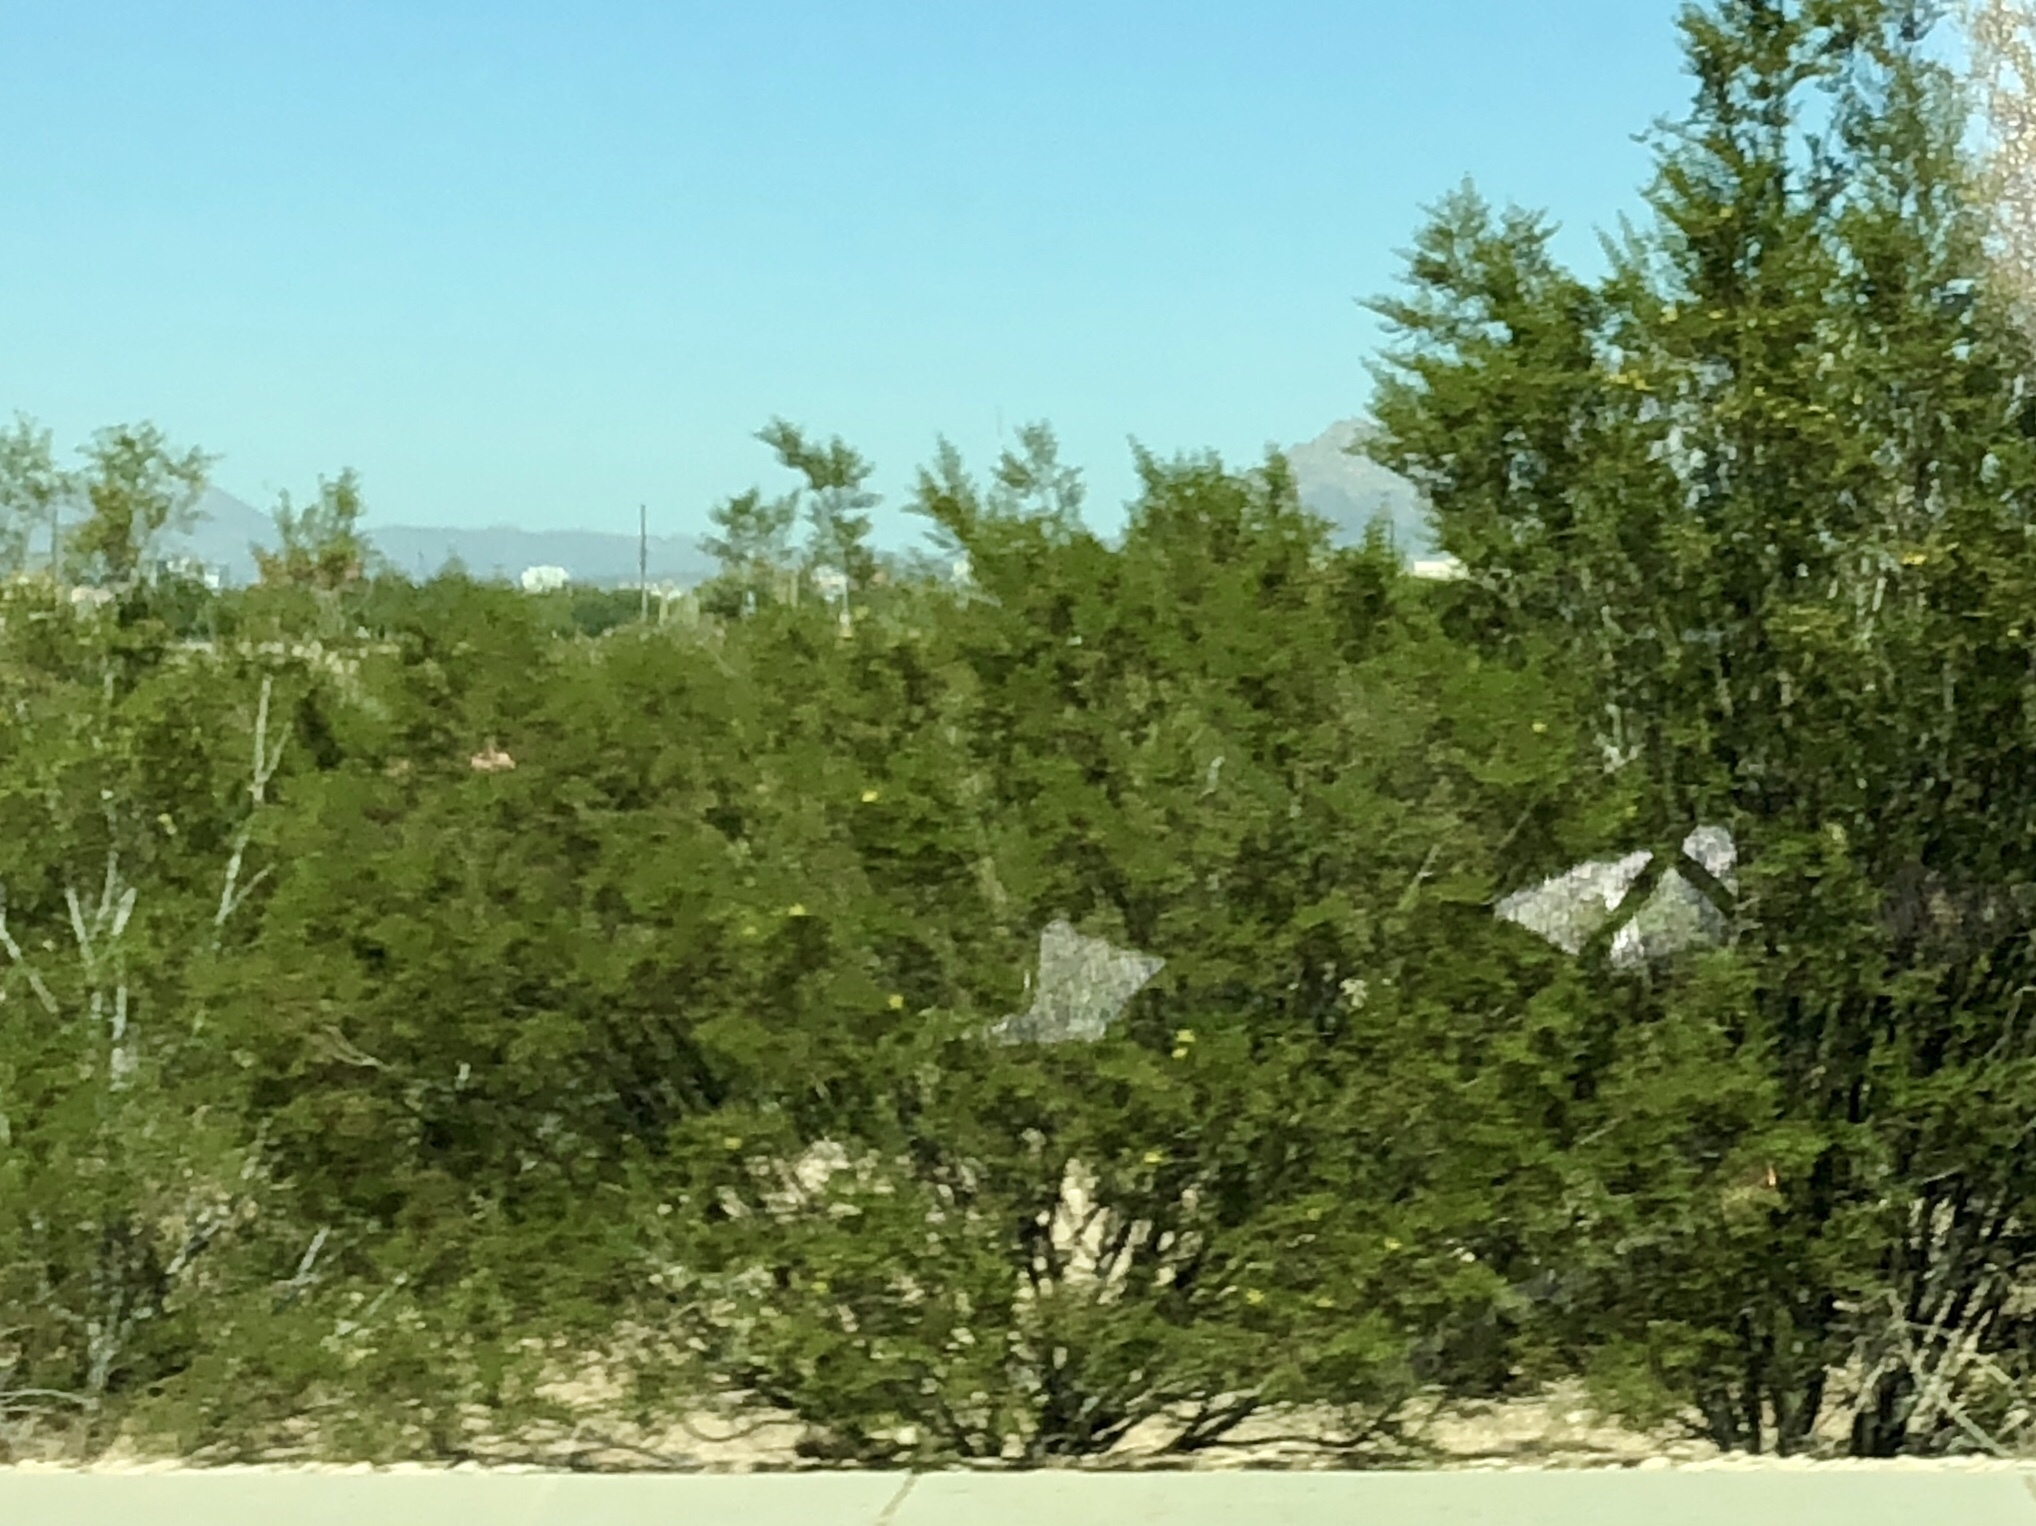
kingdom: Plantae
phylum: Tracheophyta
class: Magnoliopsida
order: Zygophyllales
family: Zygophyllaceae
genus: Larrea
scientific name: Larrea tridentata
